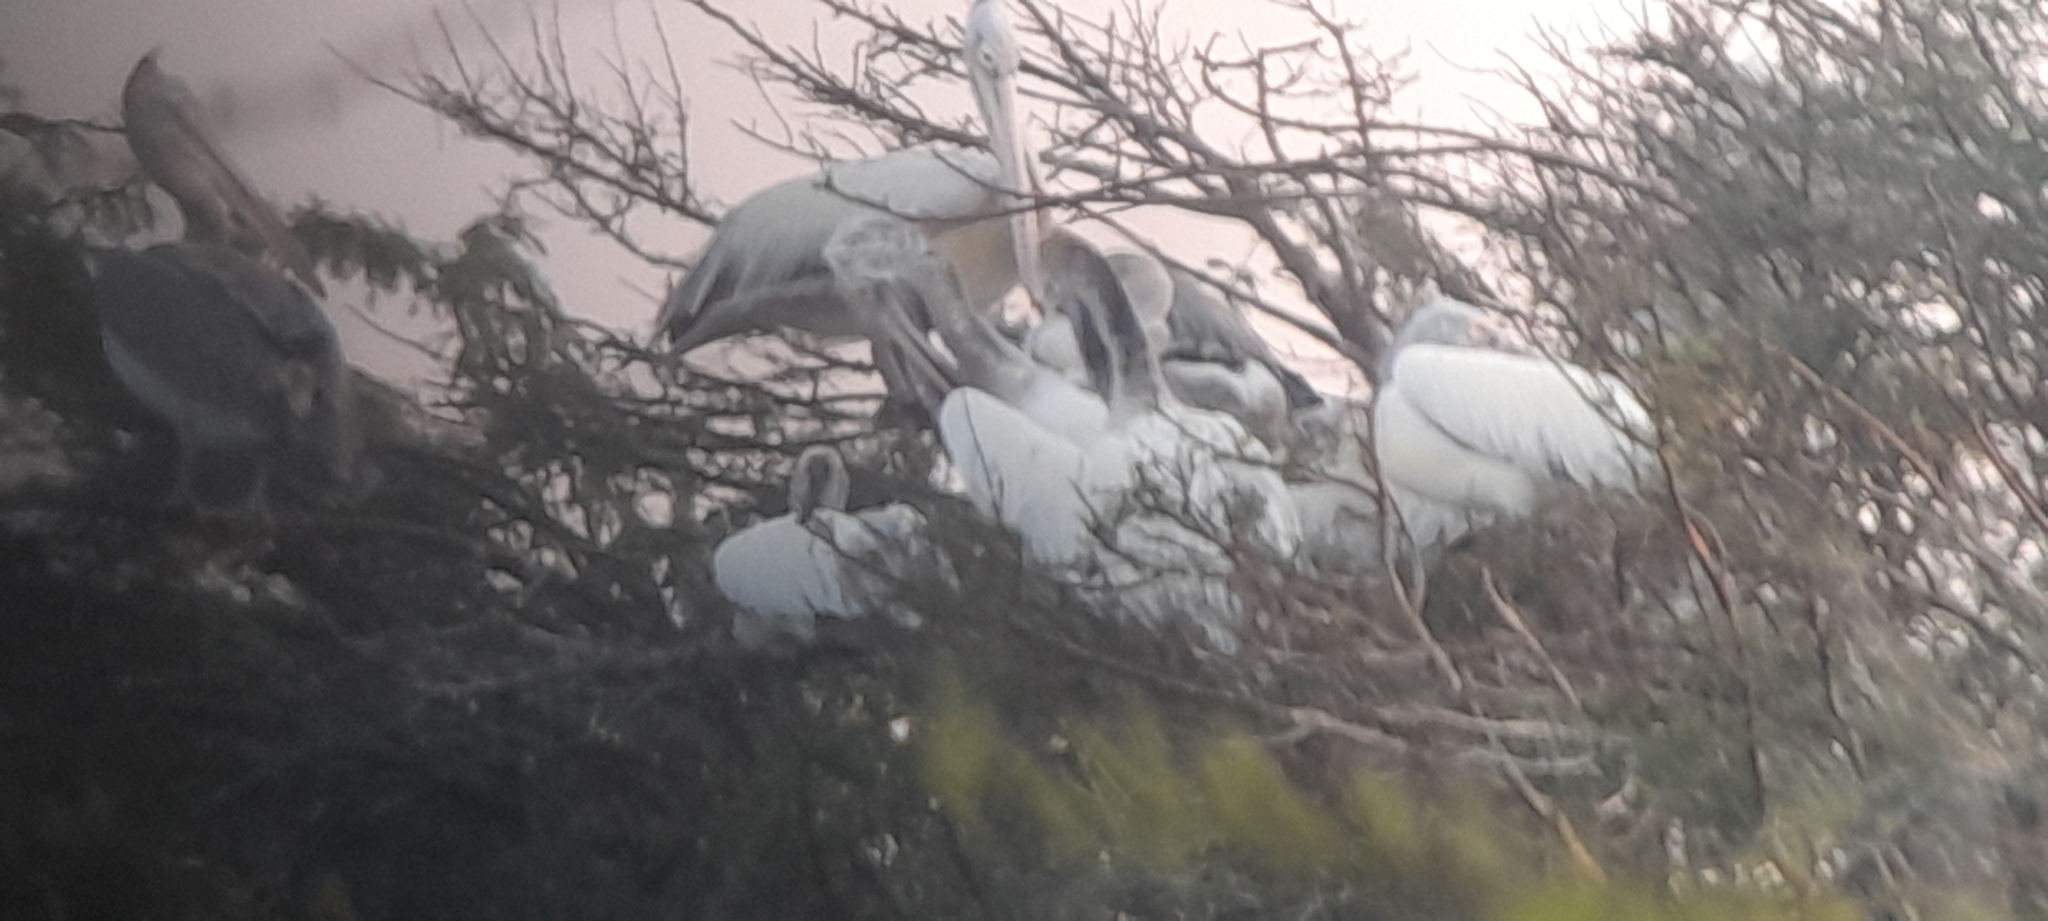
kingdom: Animalia
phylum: Chordata
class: Aves
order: Pelecaniformes
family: Pelecanidae
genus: Pelecanus
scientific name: Pelecanus philippensis
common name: Spot-billed pelican
